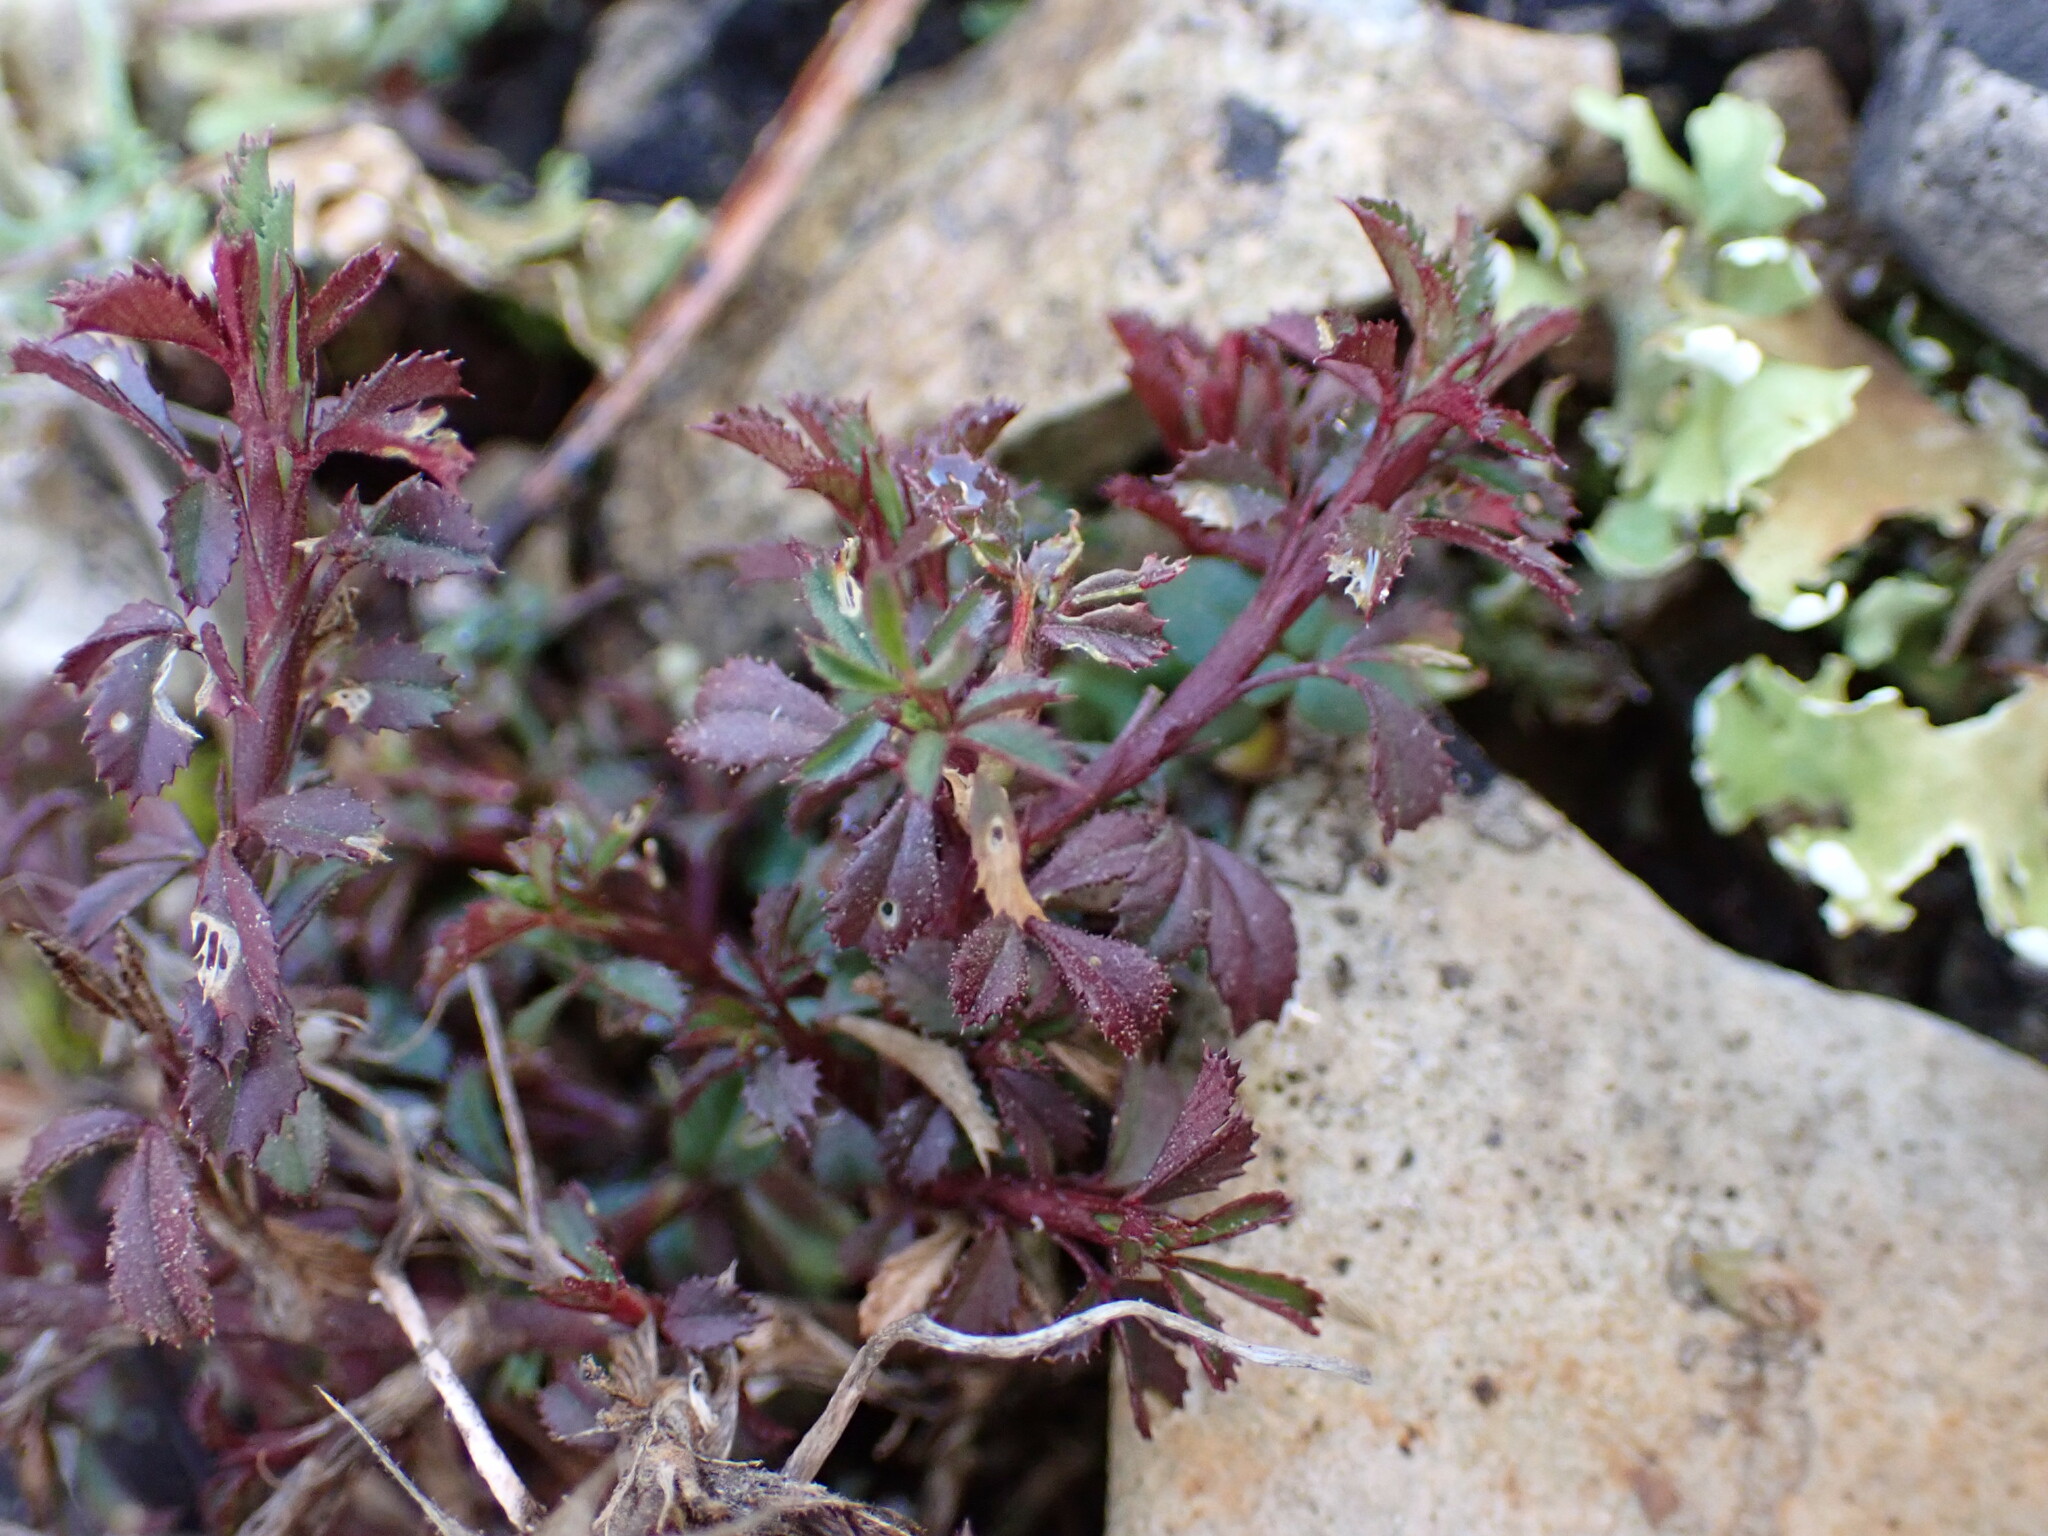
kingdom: Plantae
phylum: Tracheophyta
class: Magnoliopsida
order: Fabales
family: Fabaceae
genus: Ononis
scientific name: Ononis minutissima
